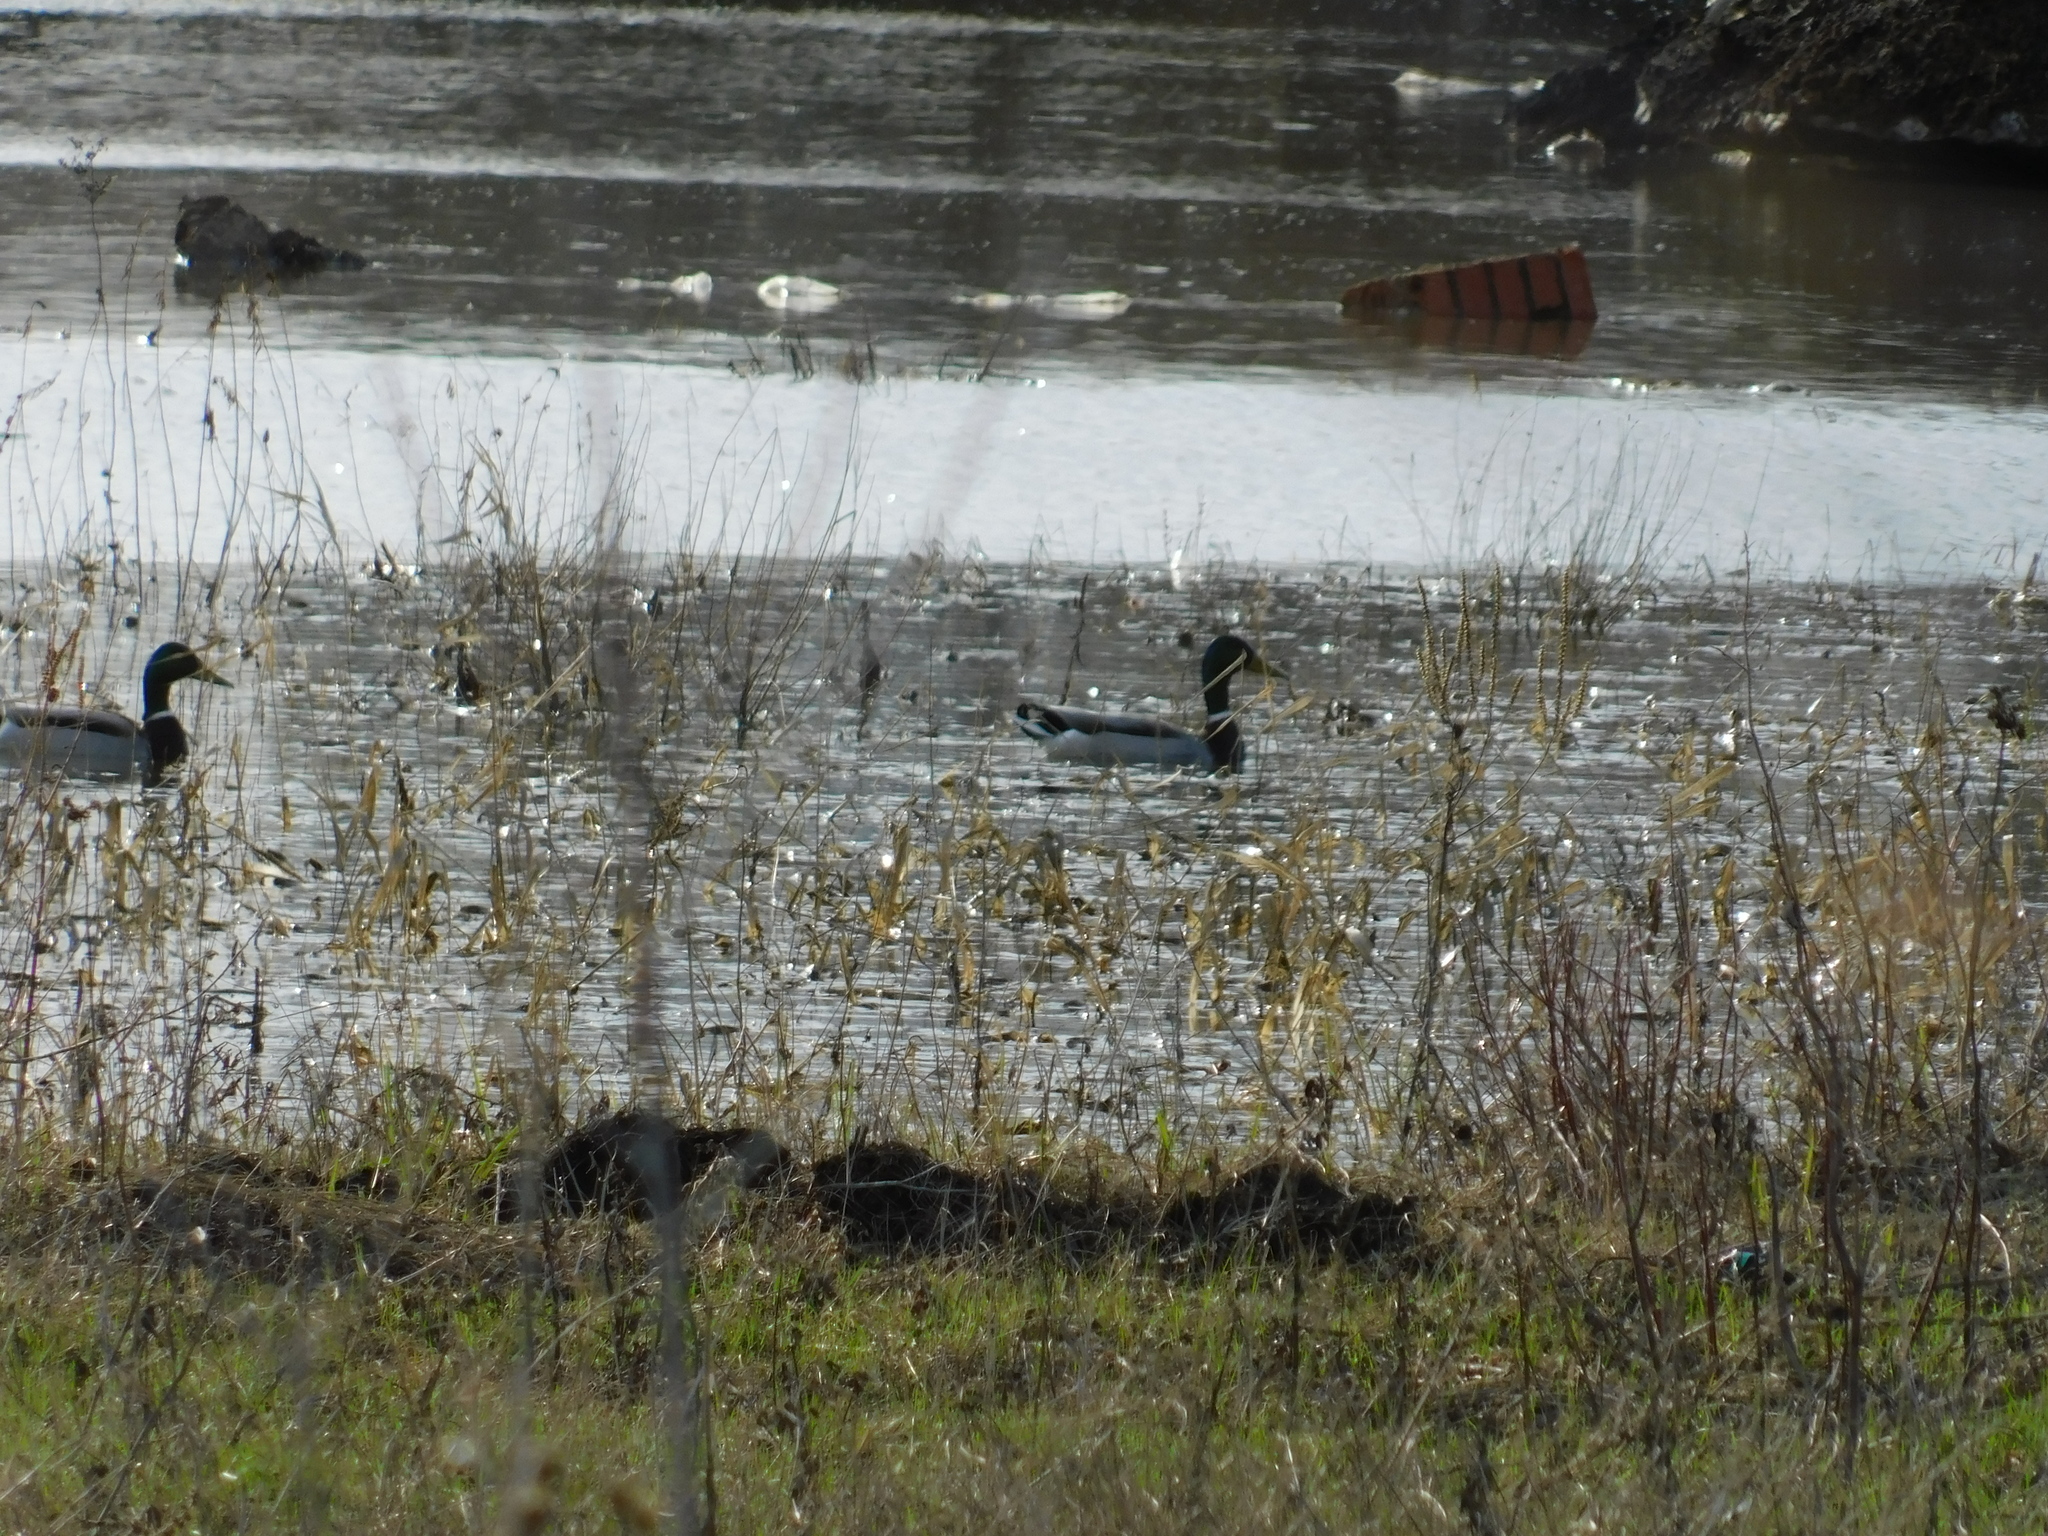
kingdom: Animalia
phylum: Chordata
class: Aves
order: Anseriformes
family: Anatidae
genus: Anas
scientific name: Anas platyrhynchos
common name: Mallard
